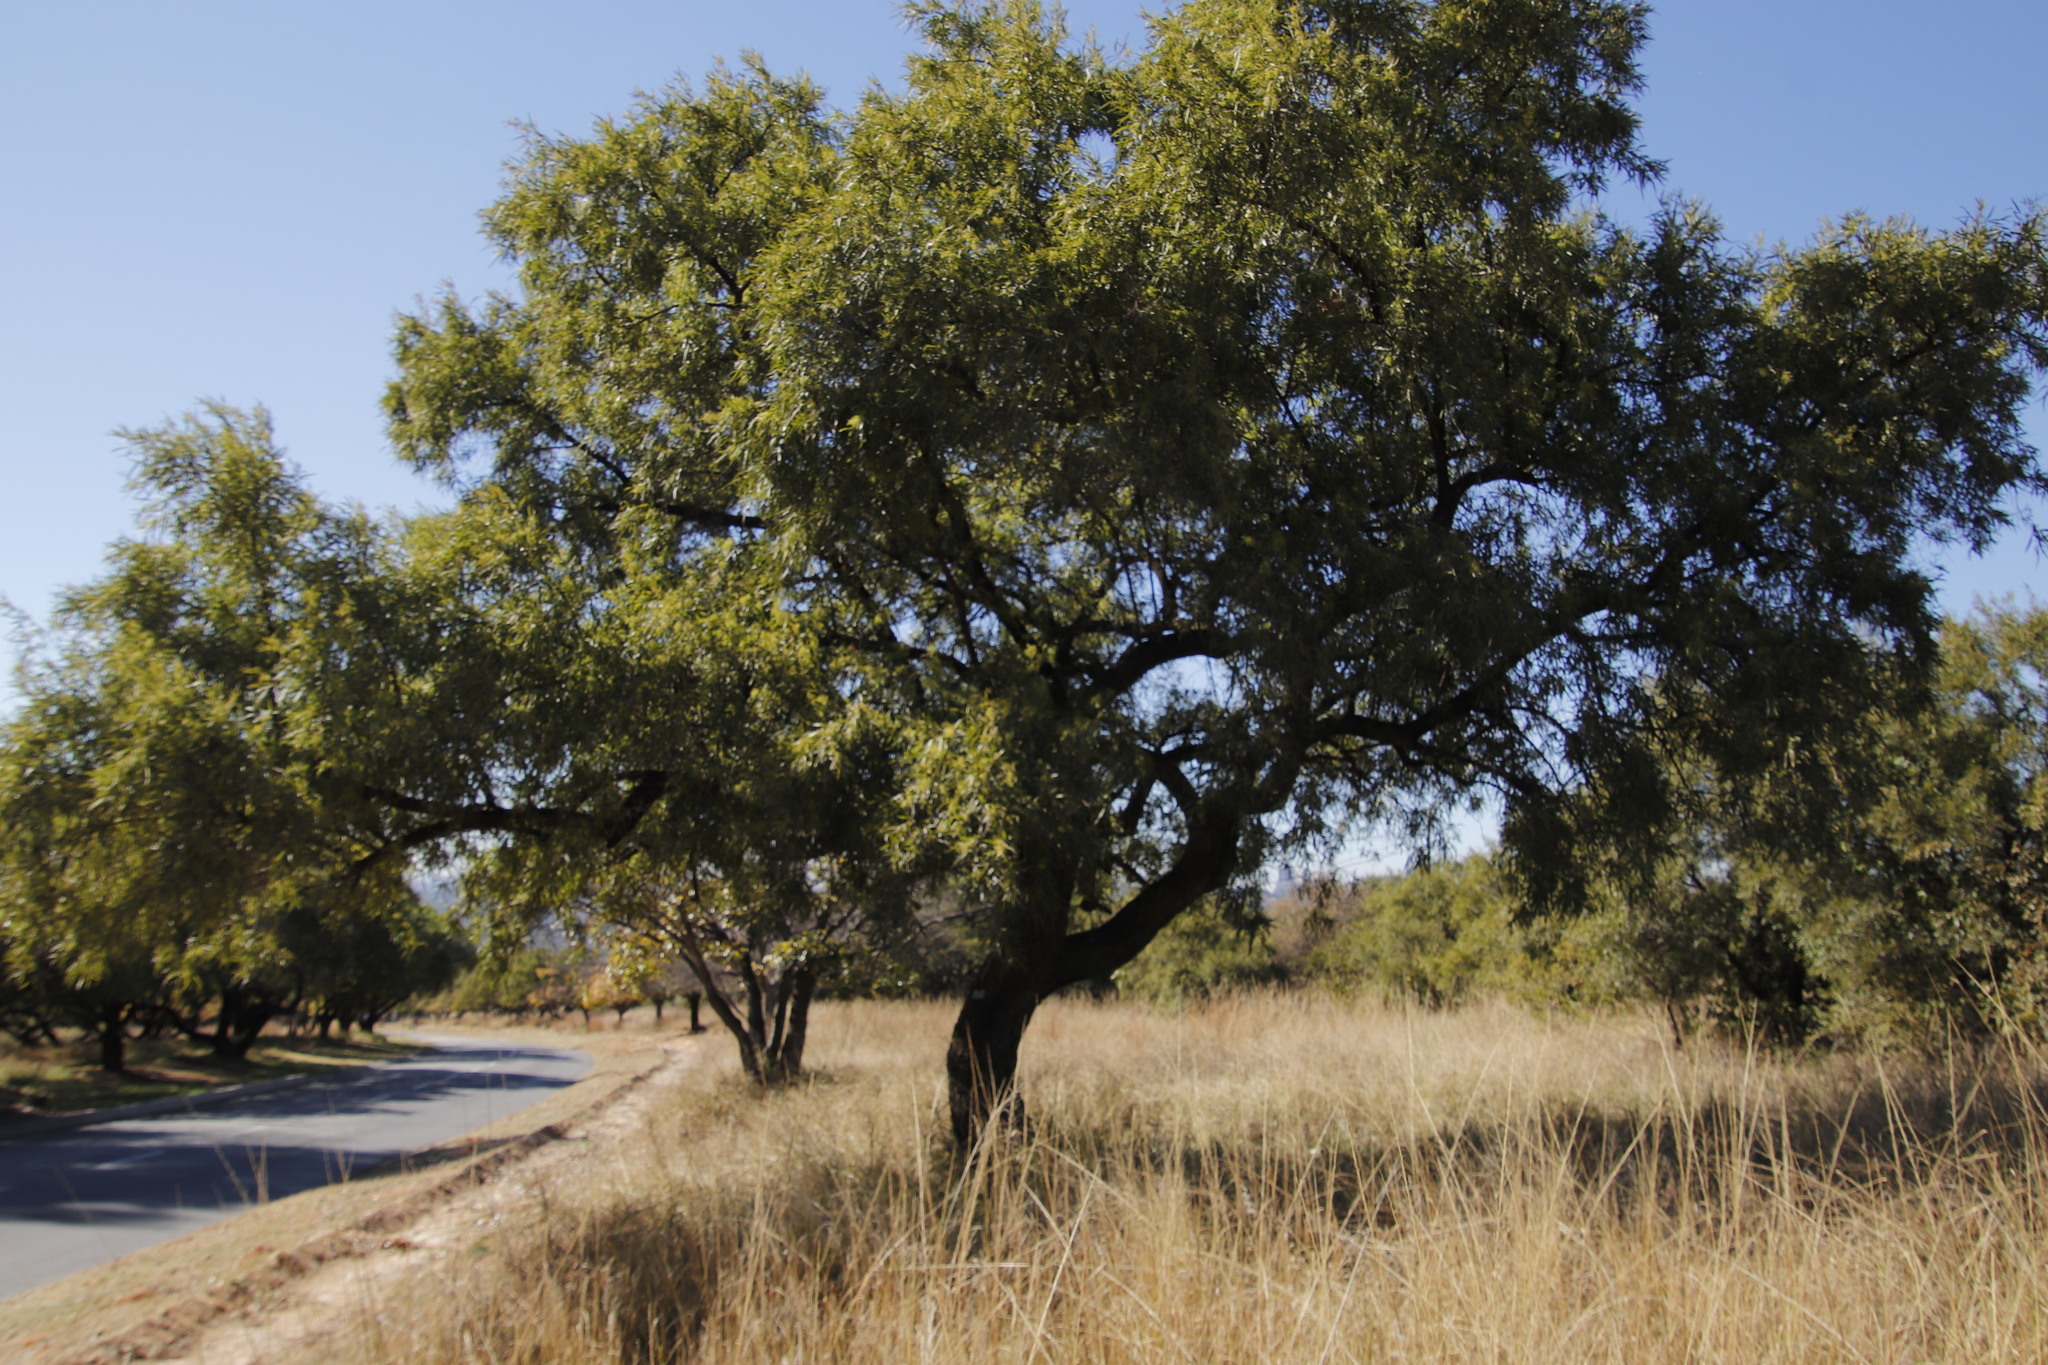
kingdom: Plantae
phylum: Tracheophyta
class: Magnoliopsida
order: Sapindales
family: Anacardiaceae
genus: Searsia
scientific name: Searsia lancea
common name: Cashew
